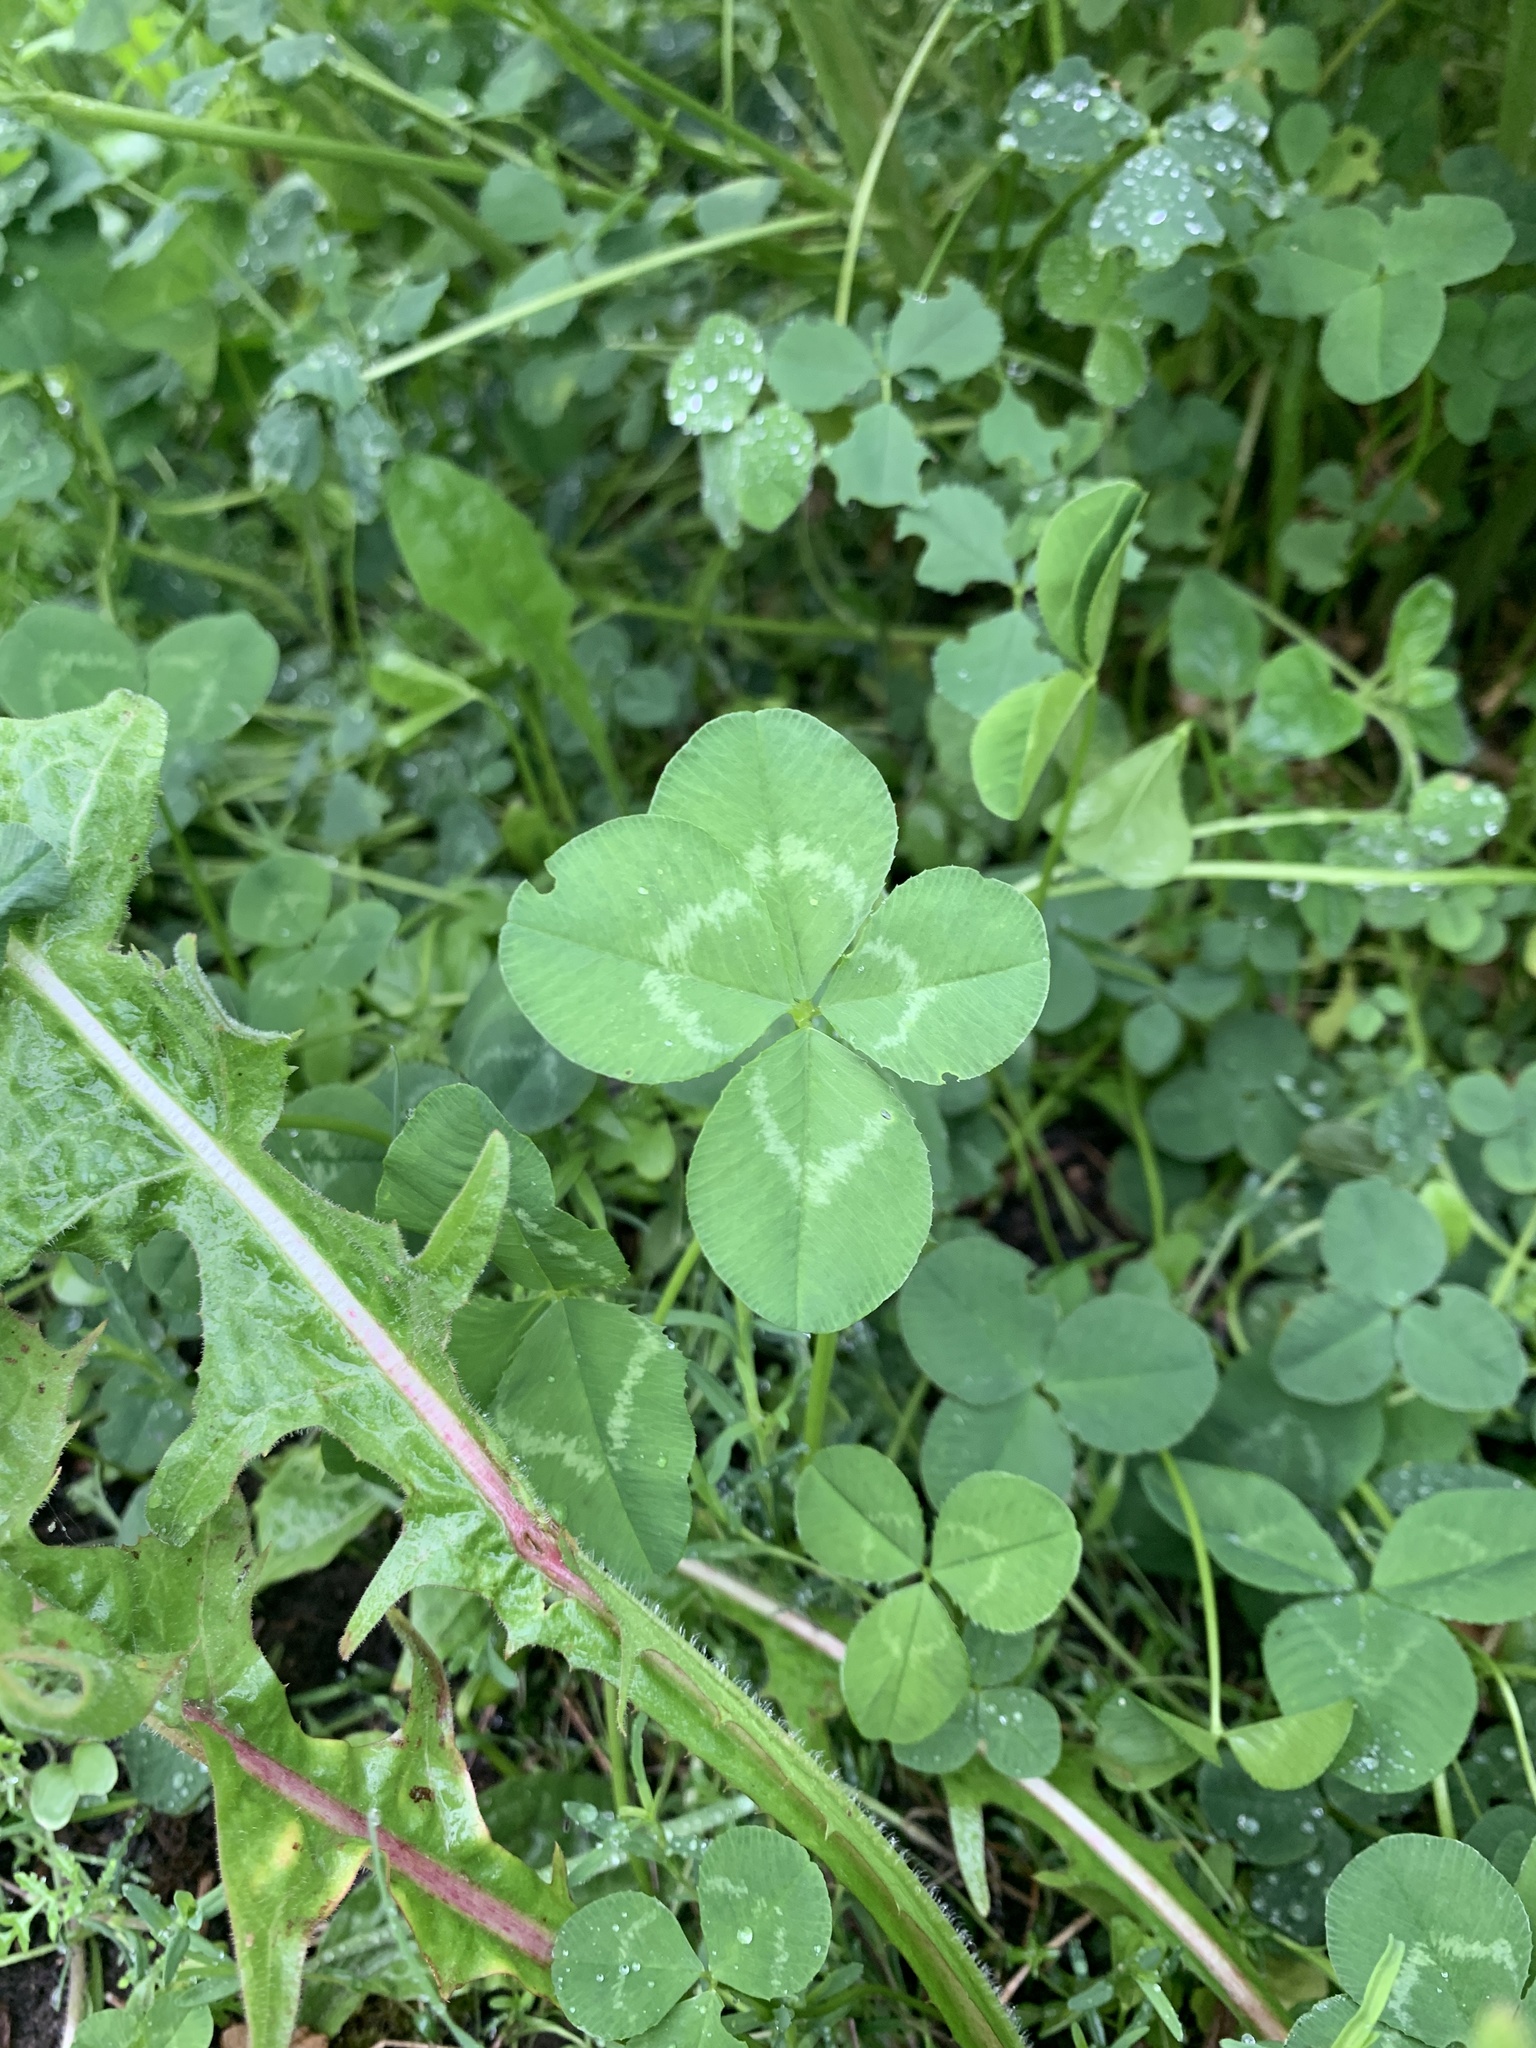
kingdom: Plantae
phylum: Tracheophyta
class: Magnoliopsida
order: Fabales
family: Fabaceae
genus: Trifolium
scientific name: Trifolium repens
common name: White clover
